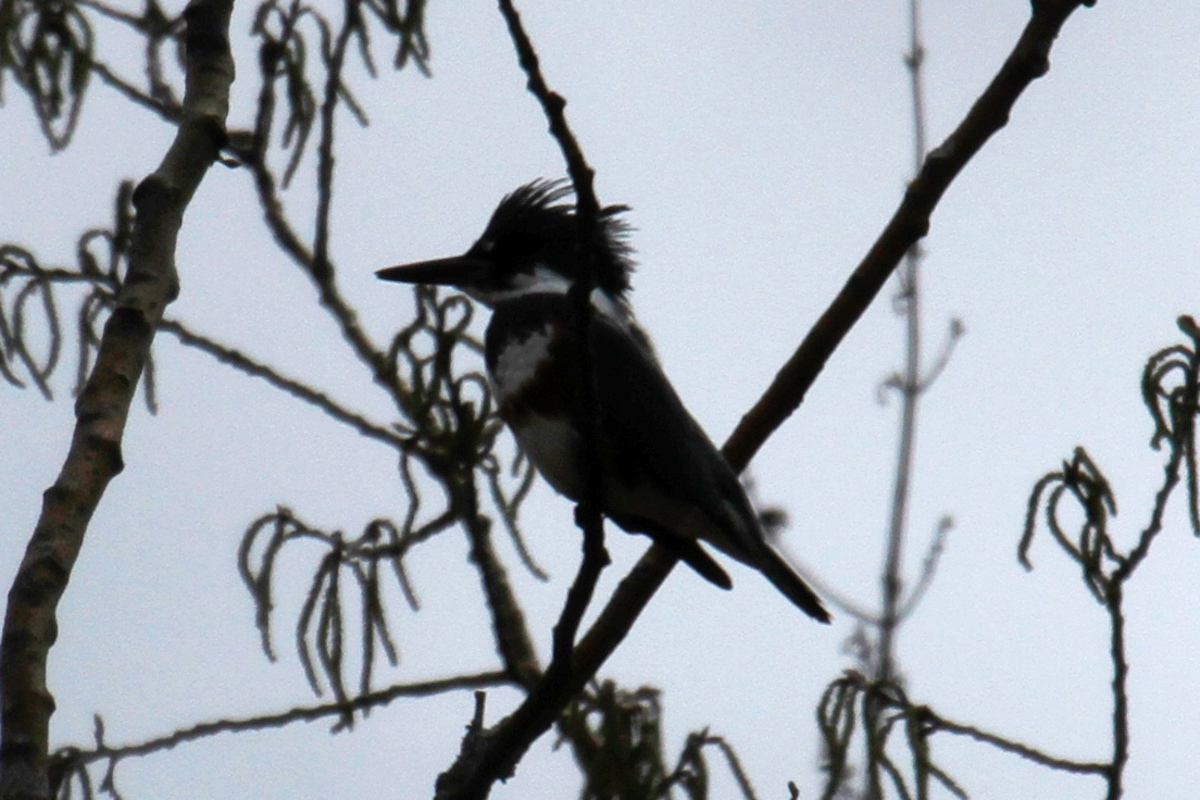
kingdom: Animalia
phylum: Chordata
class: Aves
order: Coraciiformes
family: Alcedinidae
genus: Megaceryle
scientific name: Megaceryle alcyon
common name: Belted kingfisher
